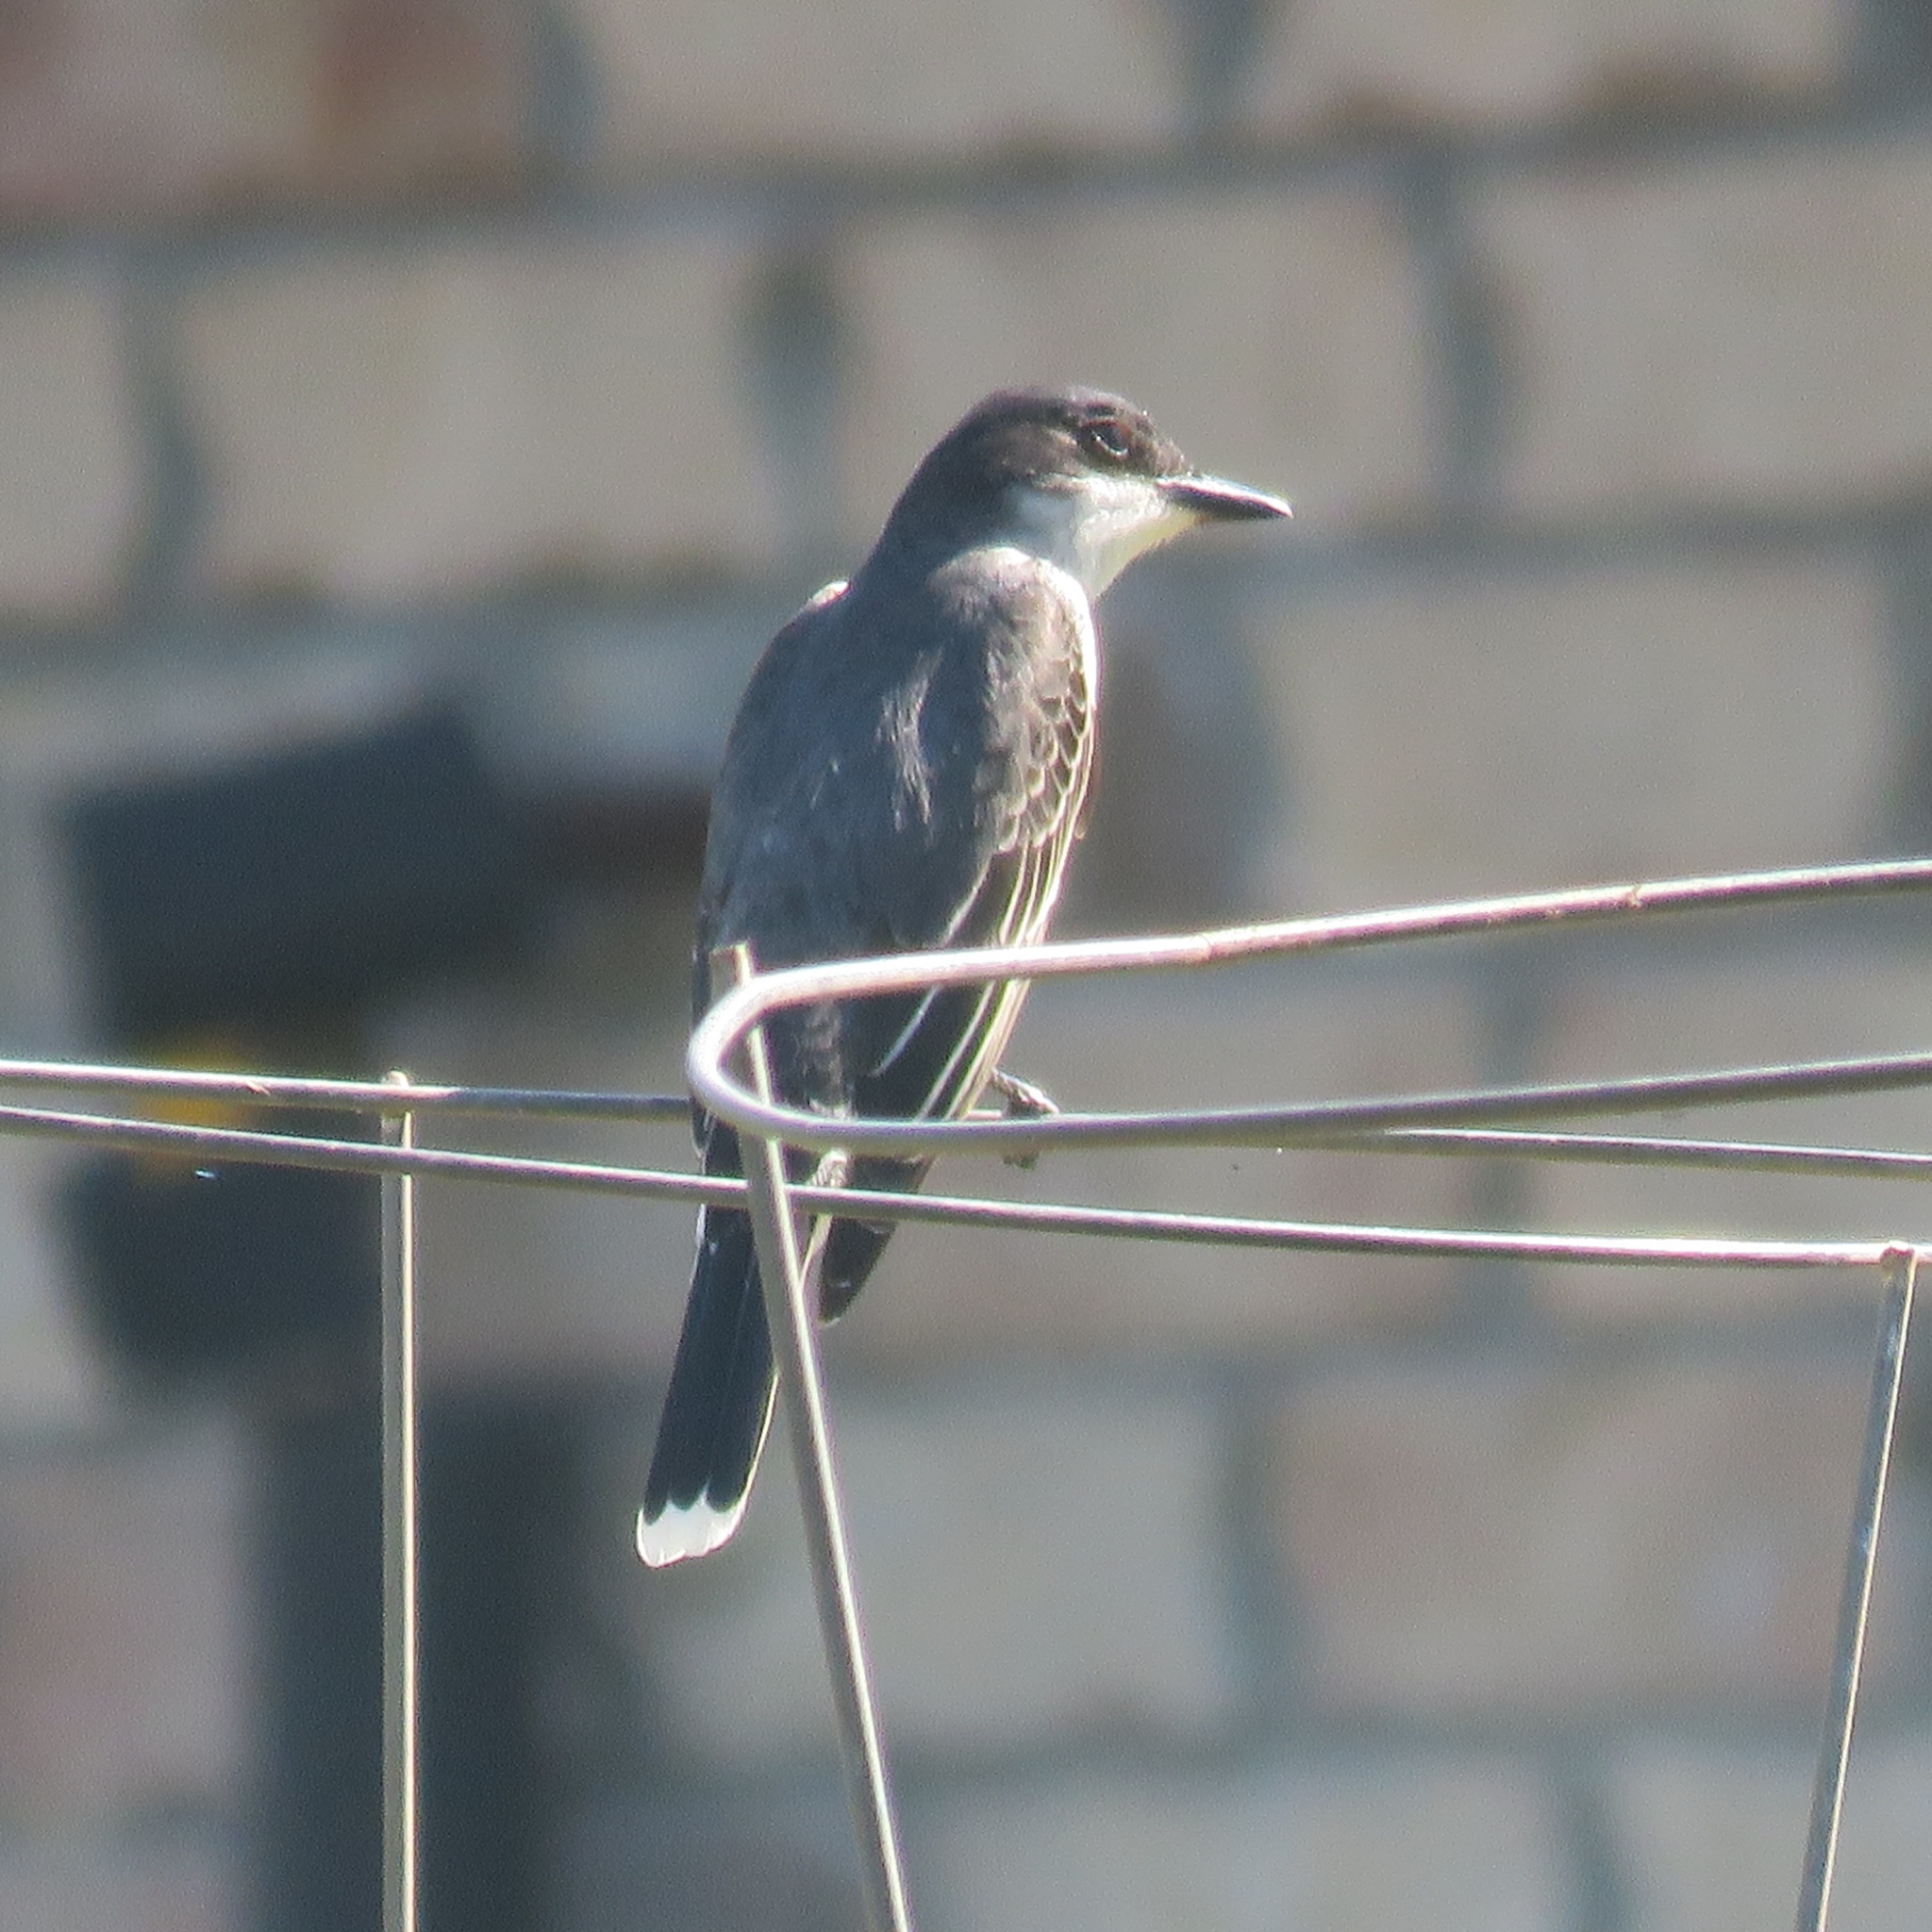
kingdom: Animalia
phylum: Chordata
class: Aves
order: Passeriformes
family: Tyrannidae
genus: Tyrannus
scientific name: Tyrannus tyrannus
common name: Eastern kingbird
